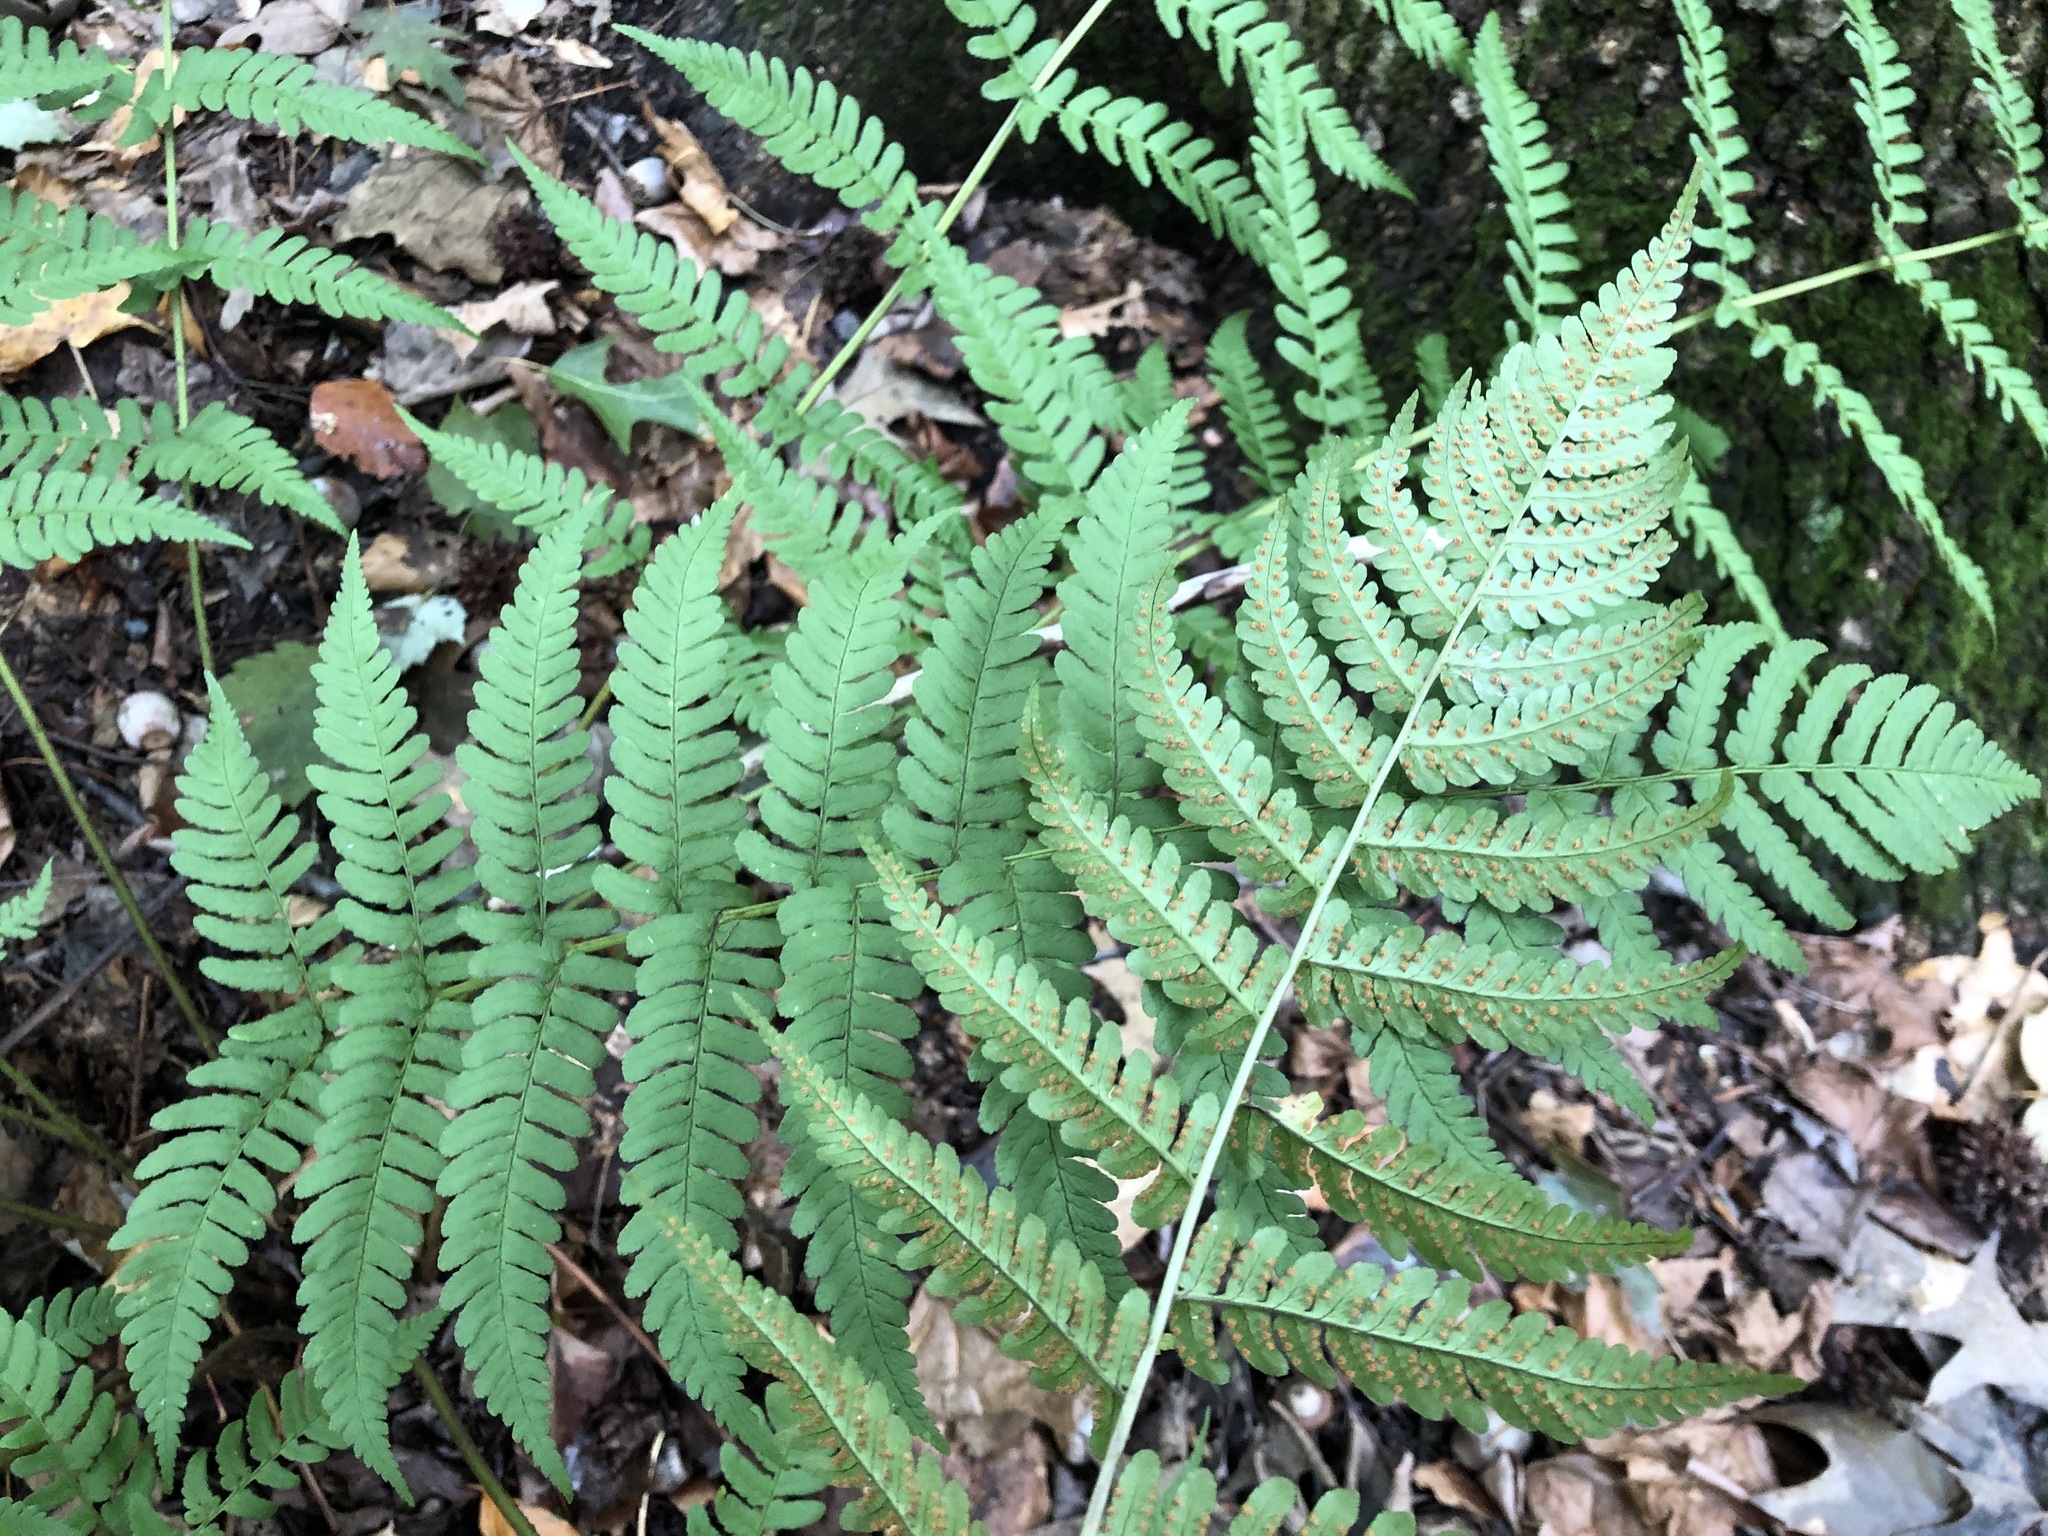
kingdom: Plantae
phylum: Tracheophyta
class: Polypodiopsida
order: Polypodiales
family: Dryopteridaceae
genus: Dryopteris
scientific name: Dryopteris marginalis
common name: Marginal wood fern
